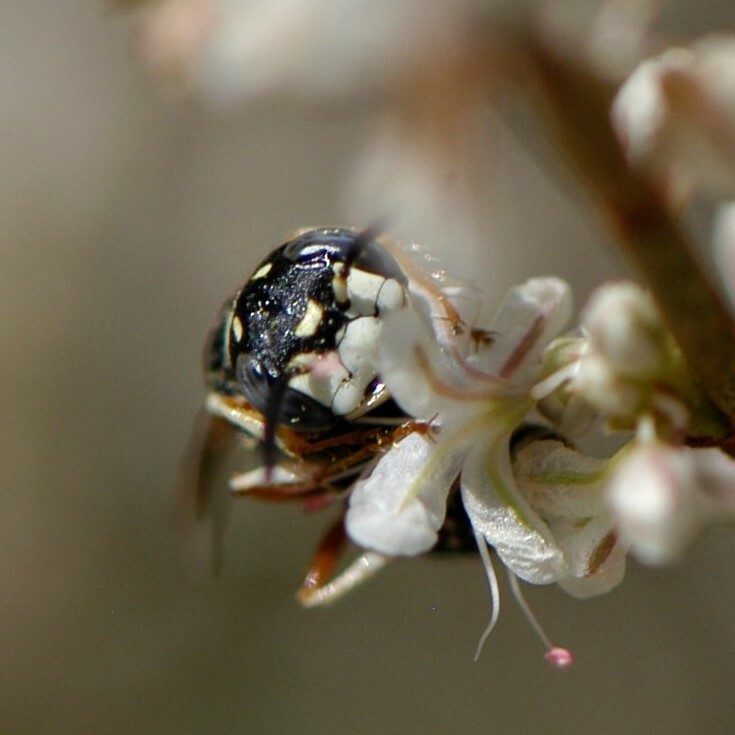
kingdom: Animalia
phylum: Arthropoda
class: Insecta
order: Hymenoptera
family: Crabronidae
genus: Philanthus
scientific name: Philanthus gibbosus
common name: Humped beewolf
